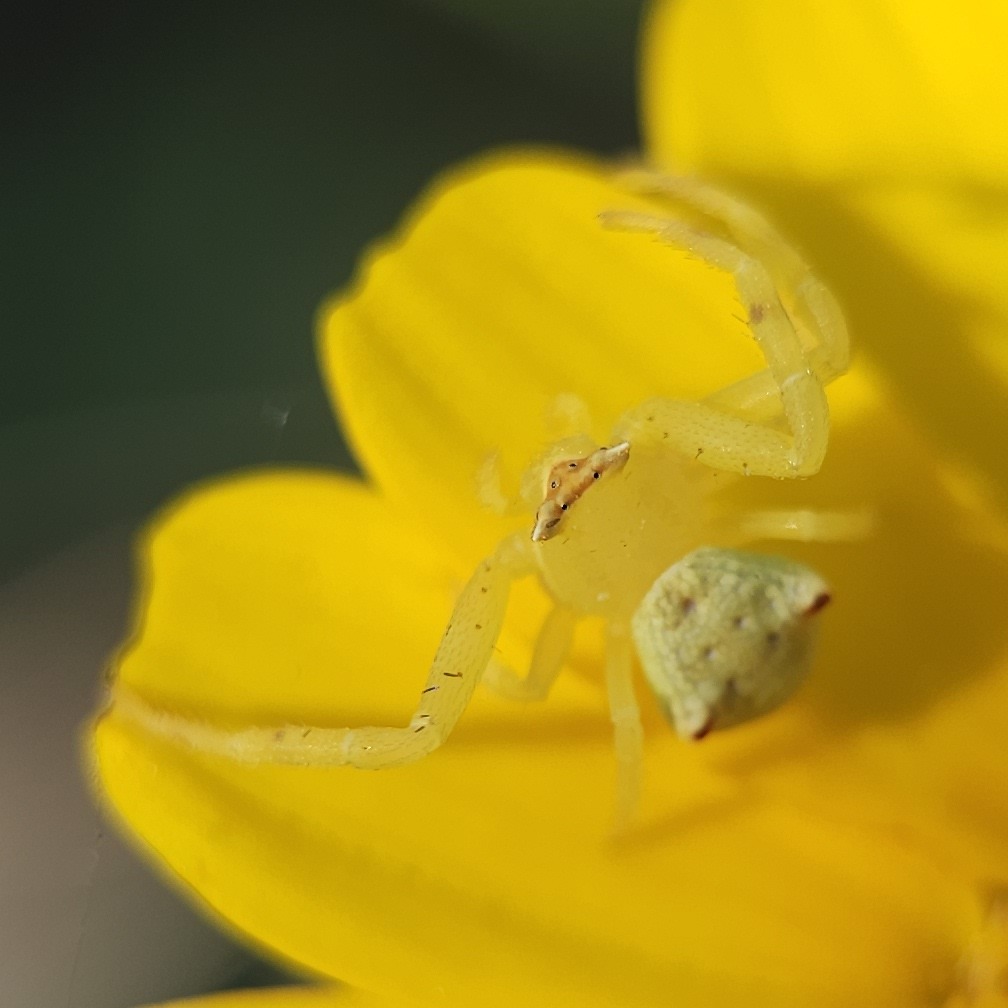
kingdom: Animalia
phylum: Arthropoda
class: Arachnida
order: Araneae
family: Thomisidae
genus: Thomisus
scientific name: Thomisus onustus
